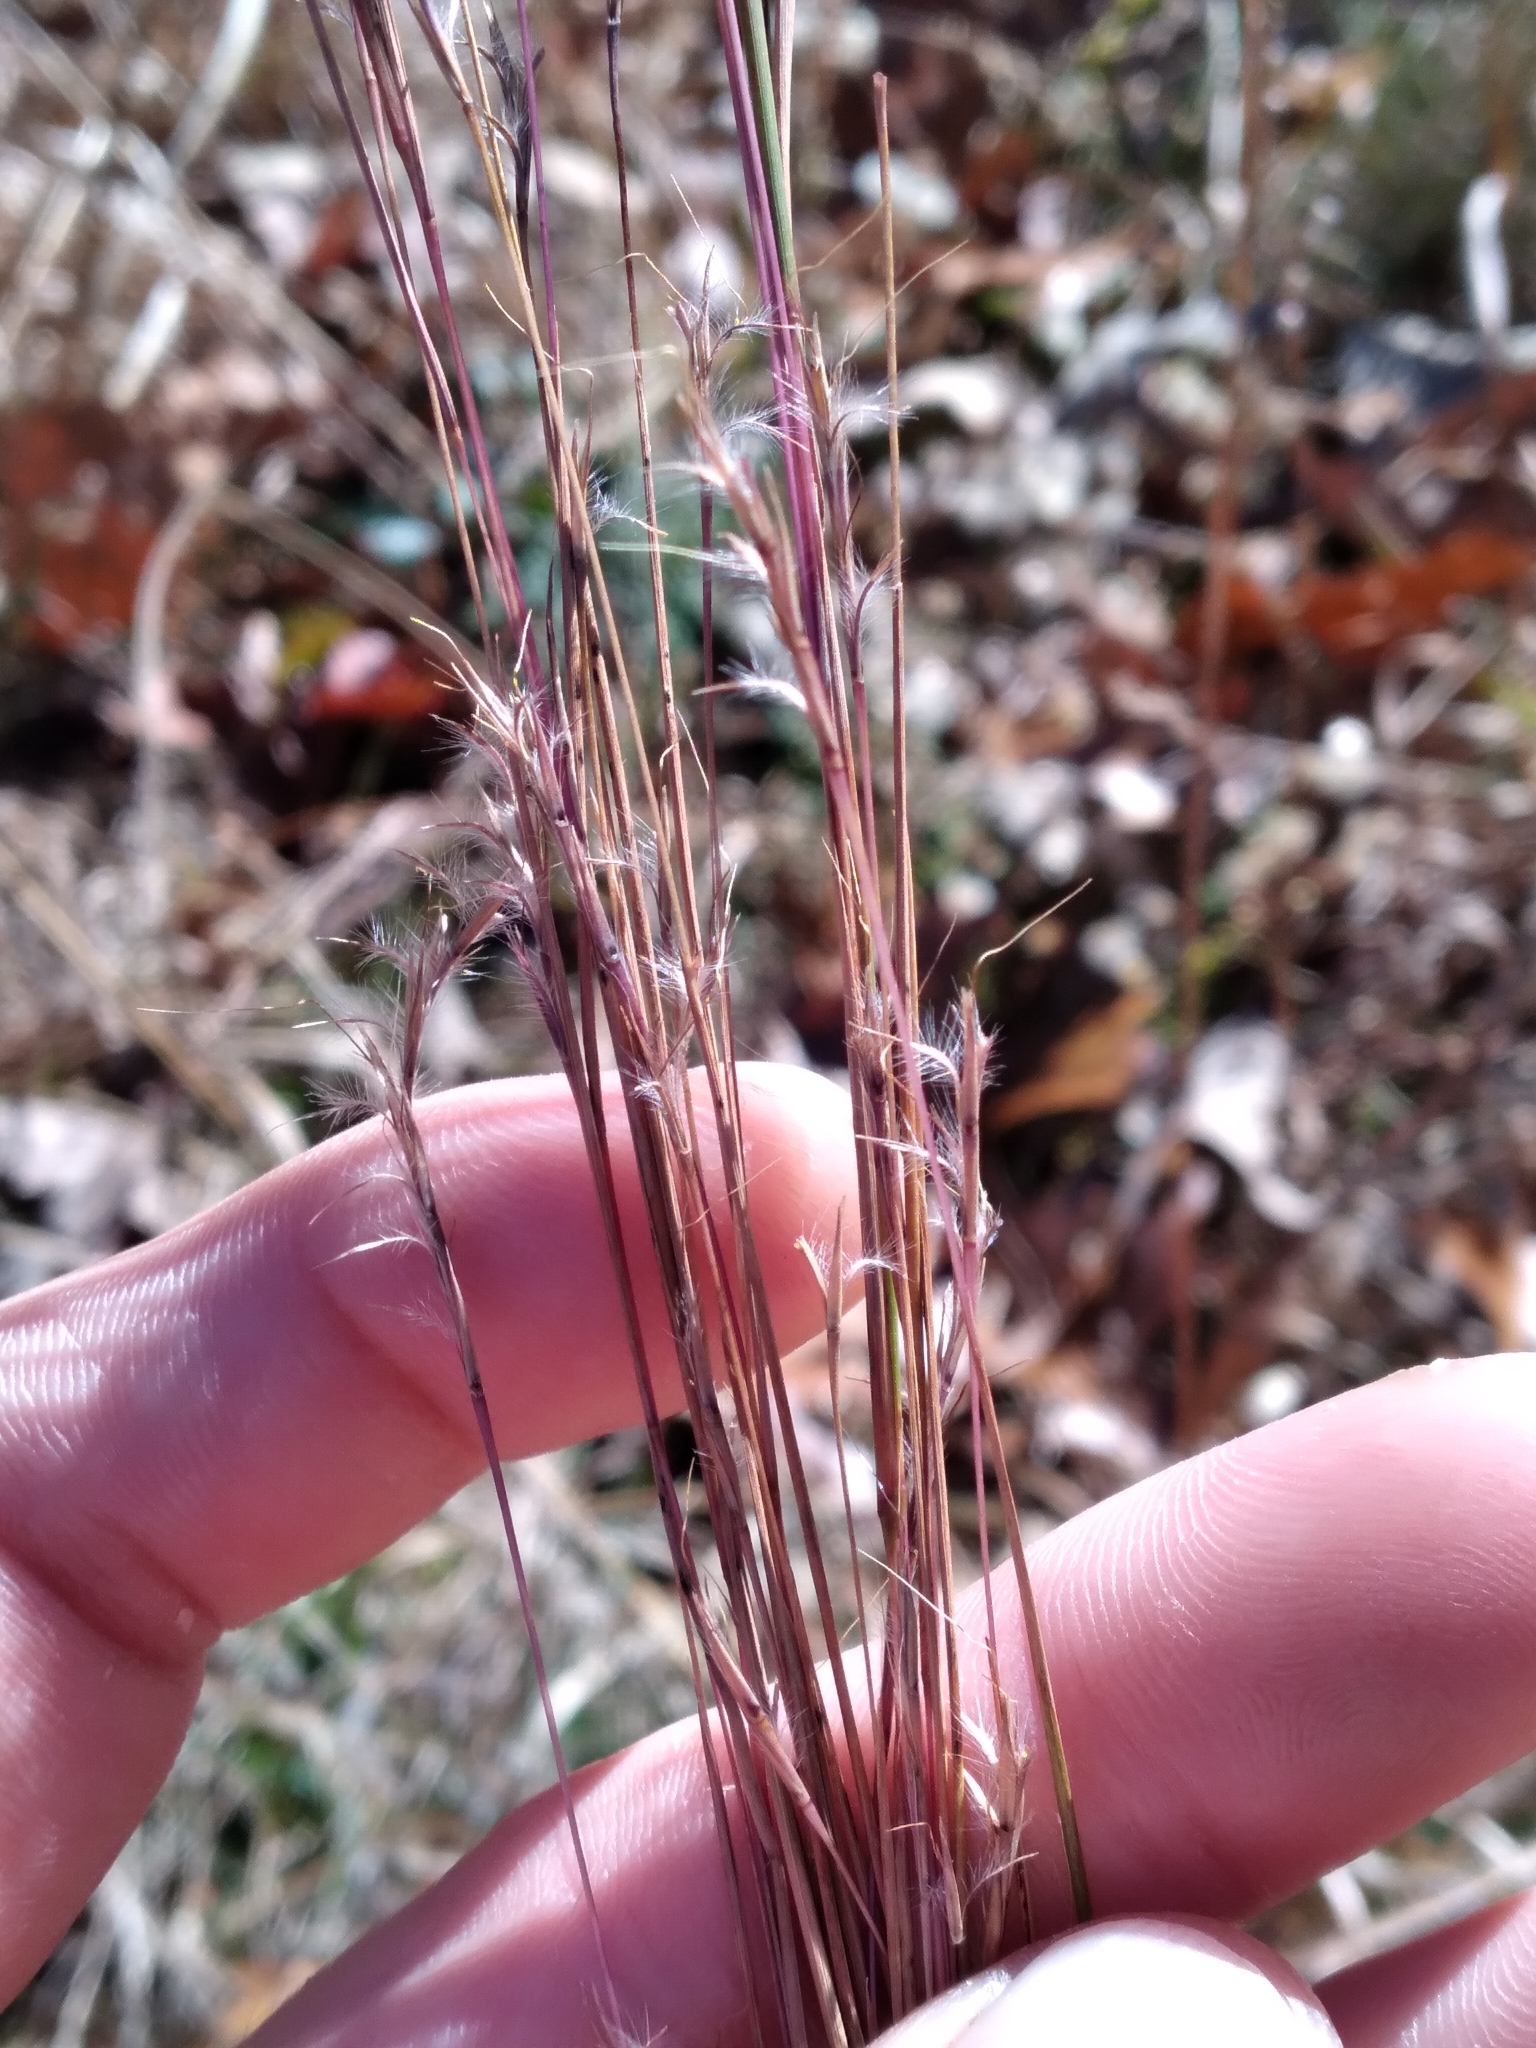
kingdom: Plantae
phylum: Tracheophyta
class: Liliopsida
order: Poales
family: Poaceae
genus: Schizachyrium
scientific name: Schizachyrium scoparium
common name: Little bluestem
